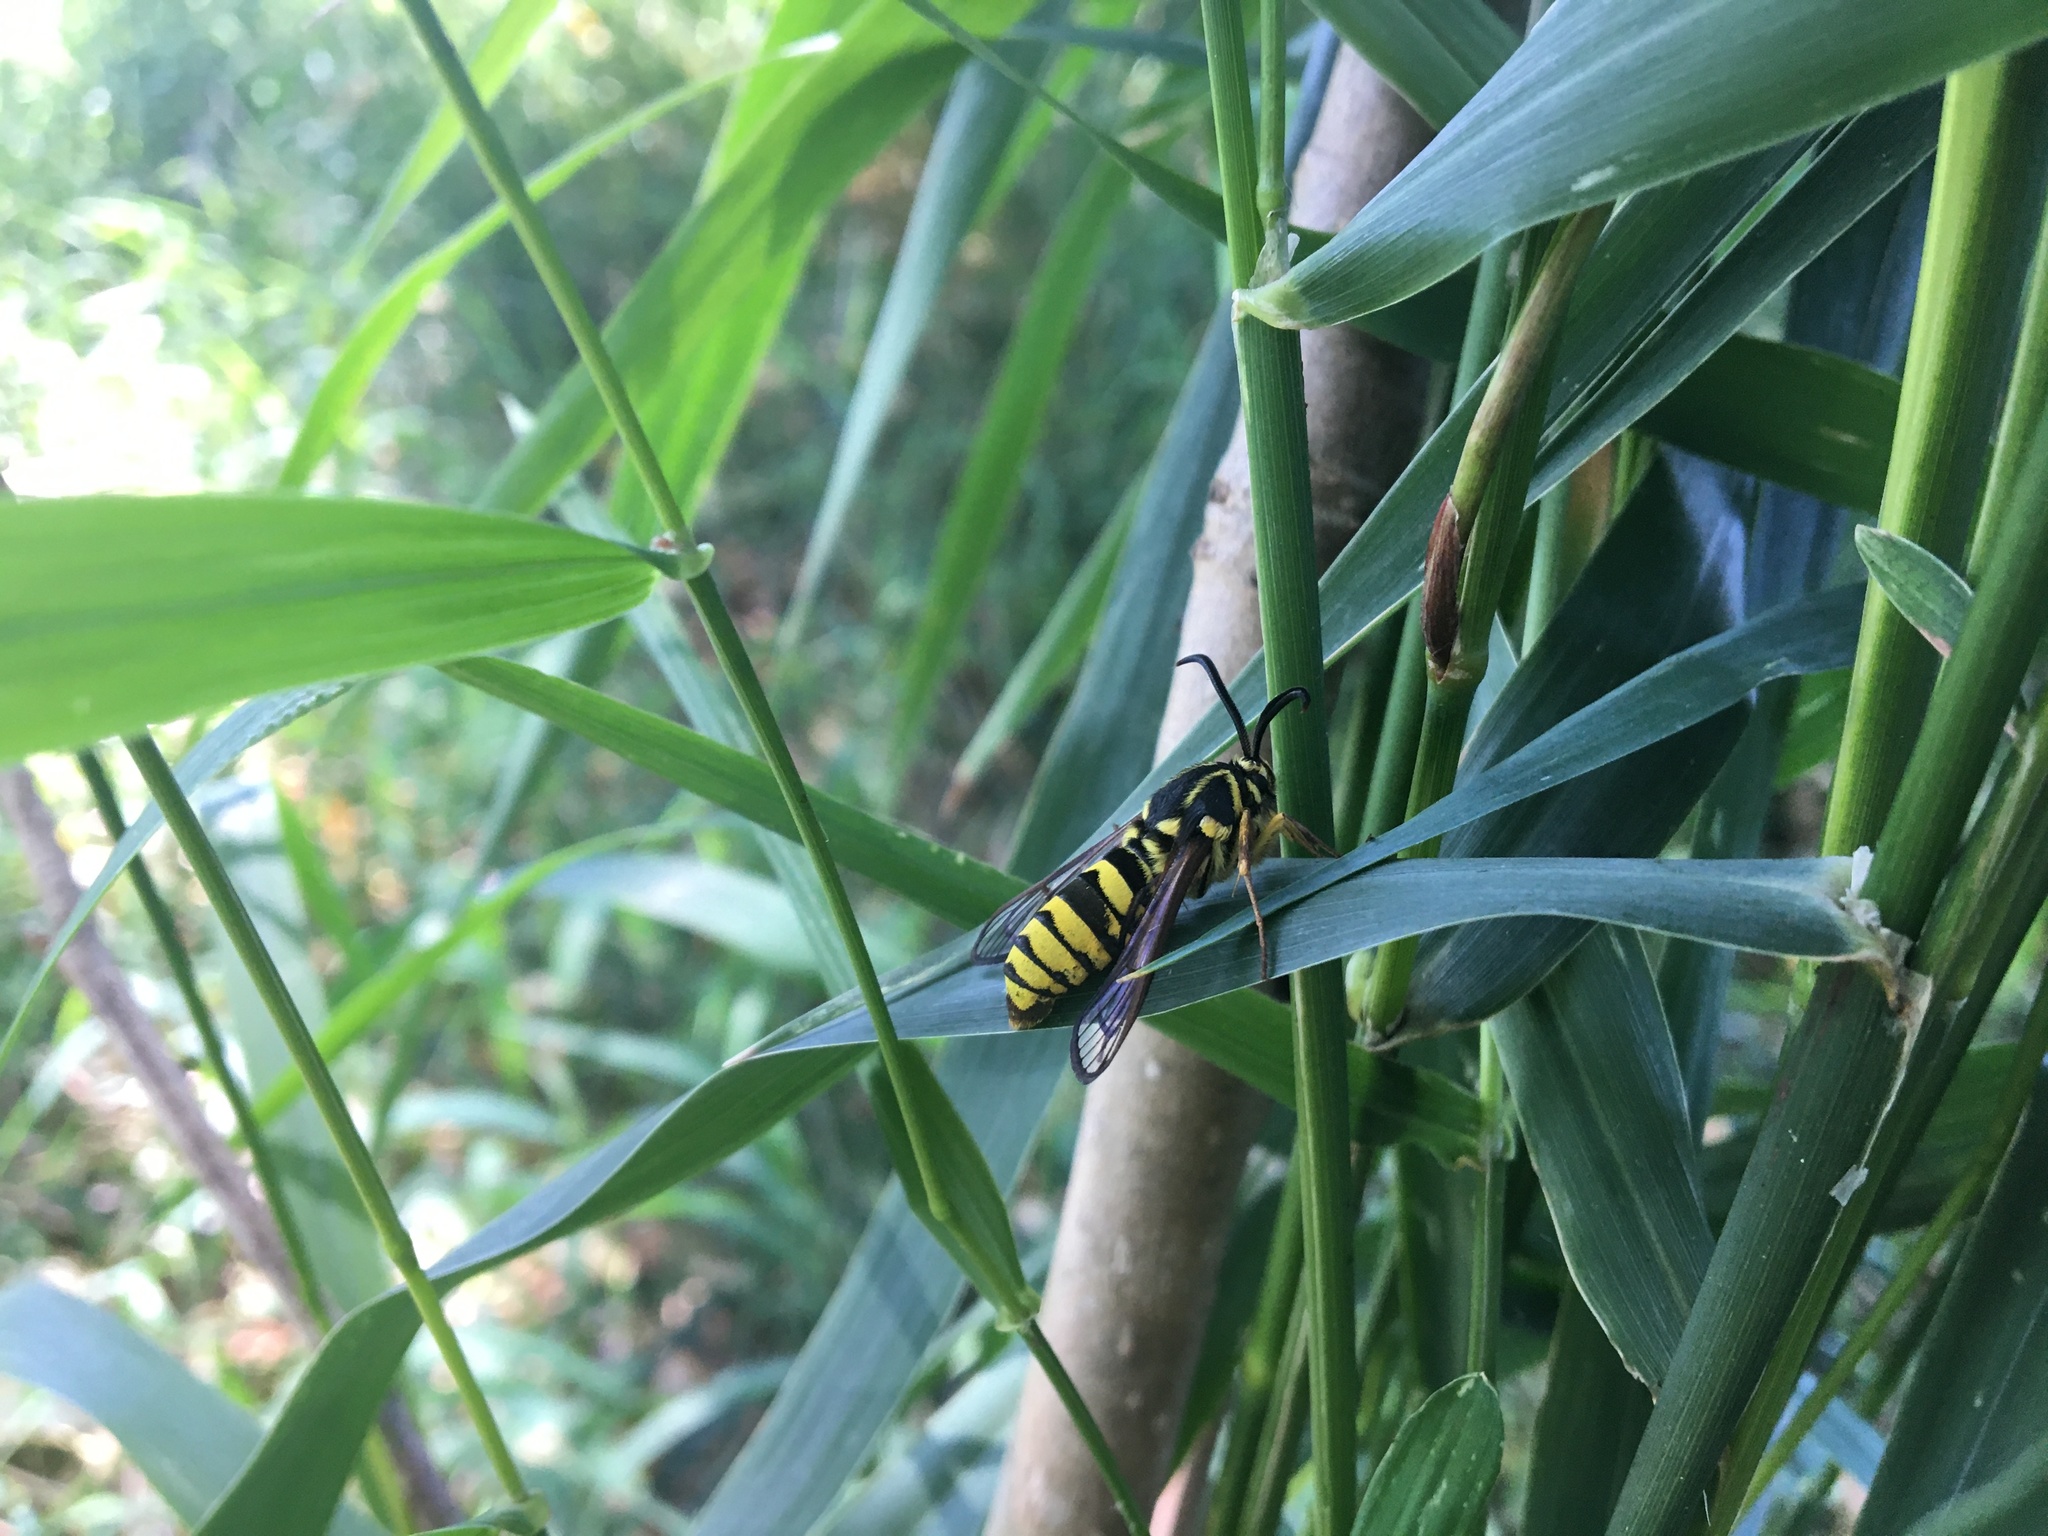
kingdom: Animalia
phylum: Arthropoda
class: Insecta
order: Lepidoptera
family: Sesiidae
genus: Sesia
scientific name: Sesia tibiale
